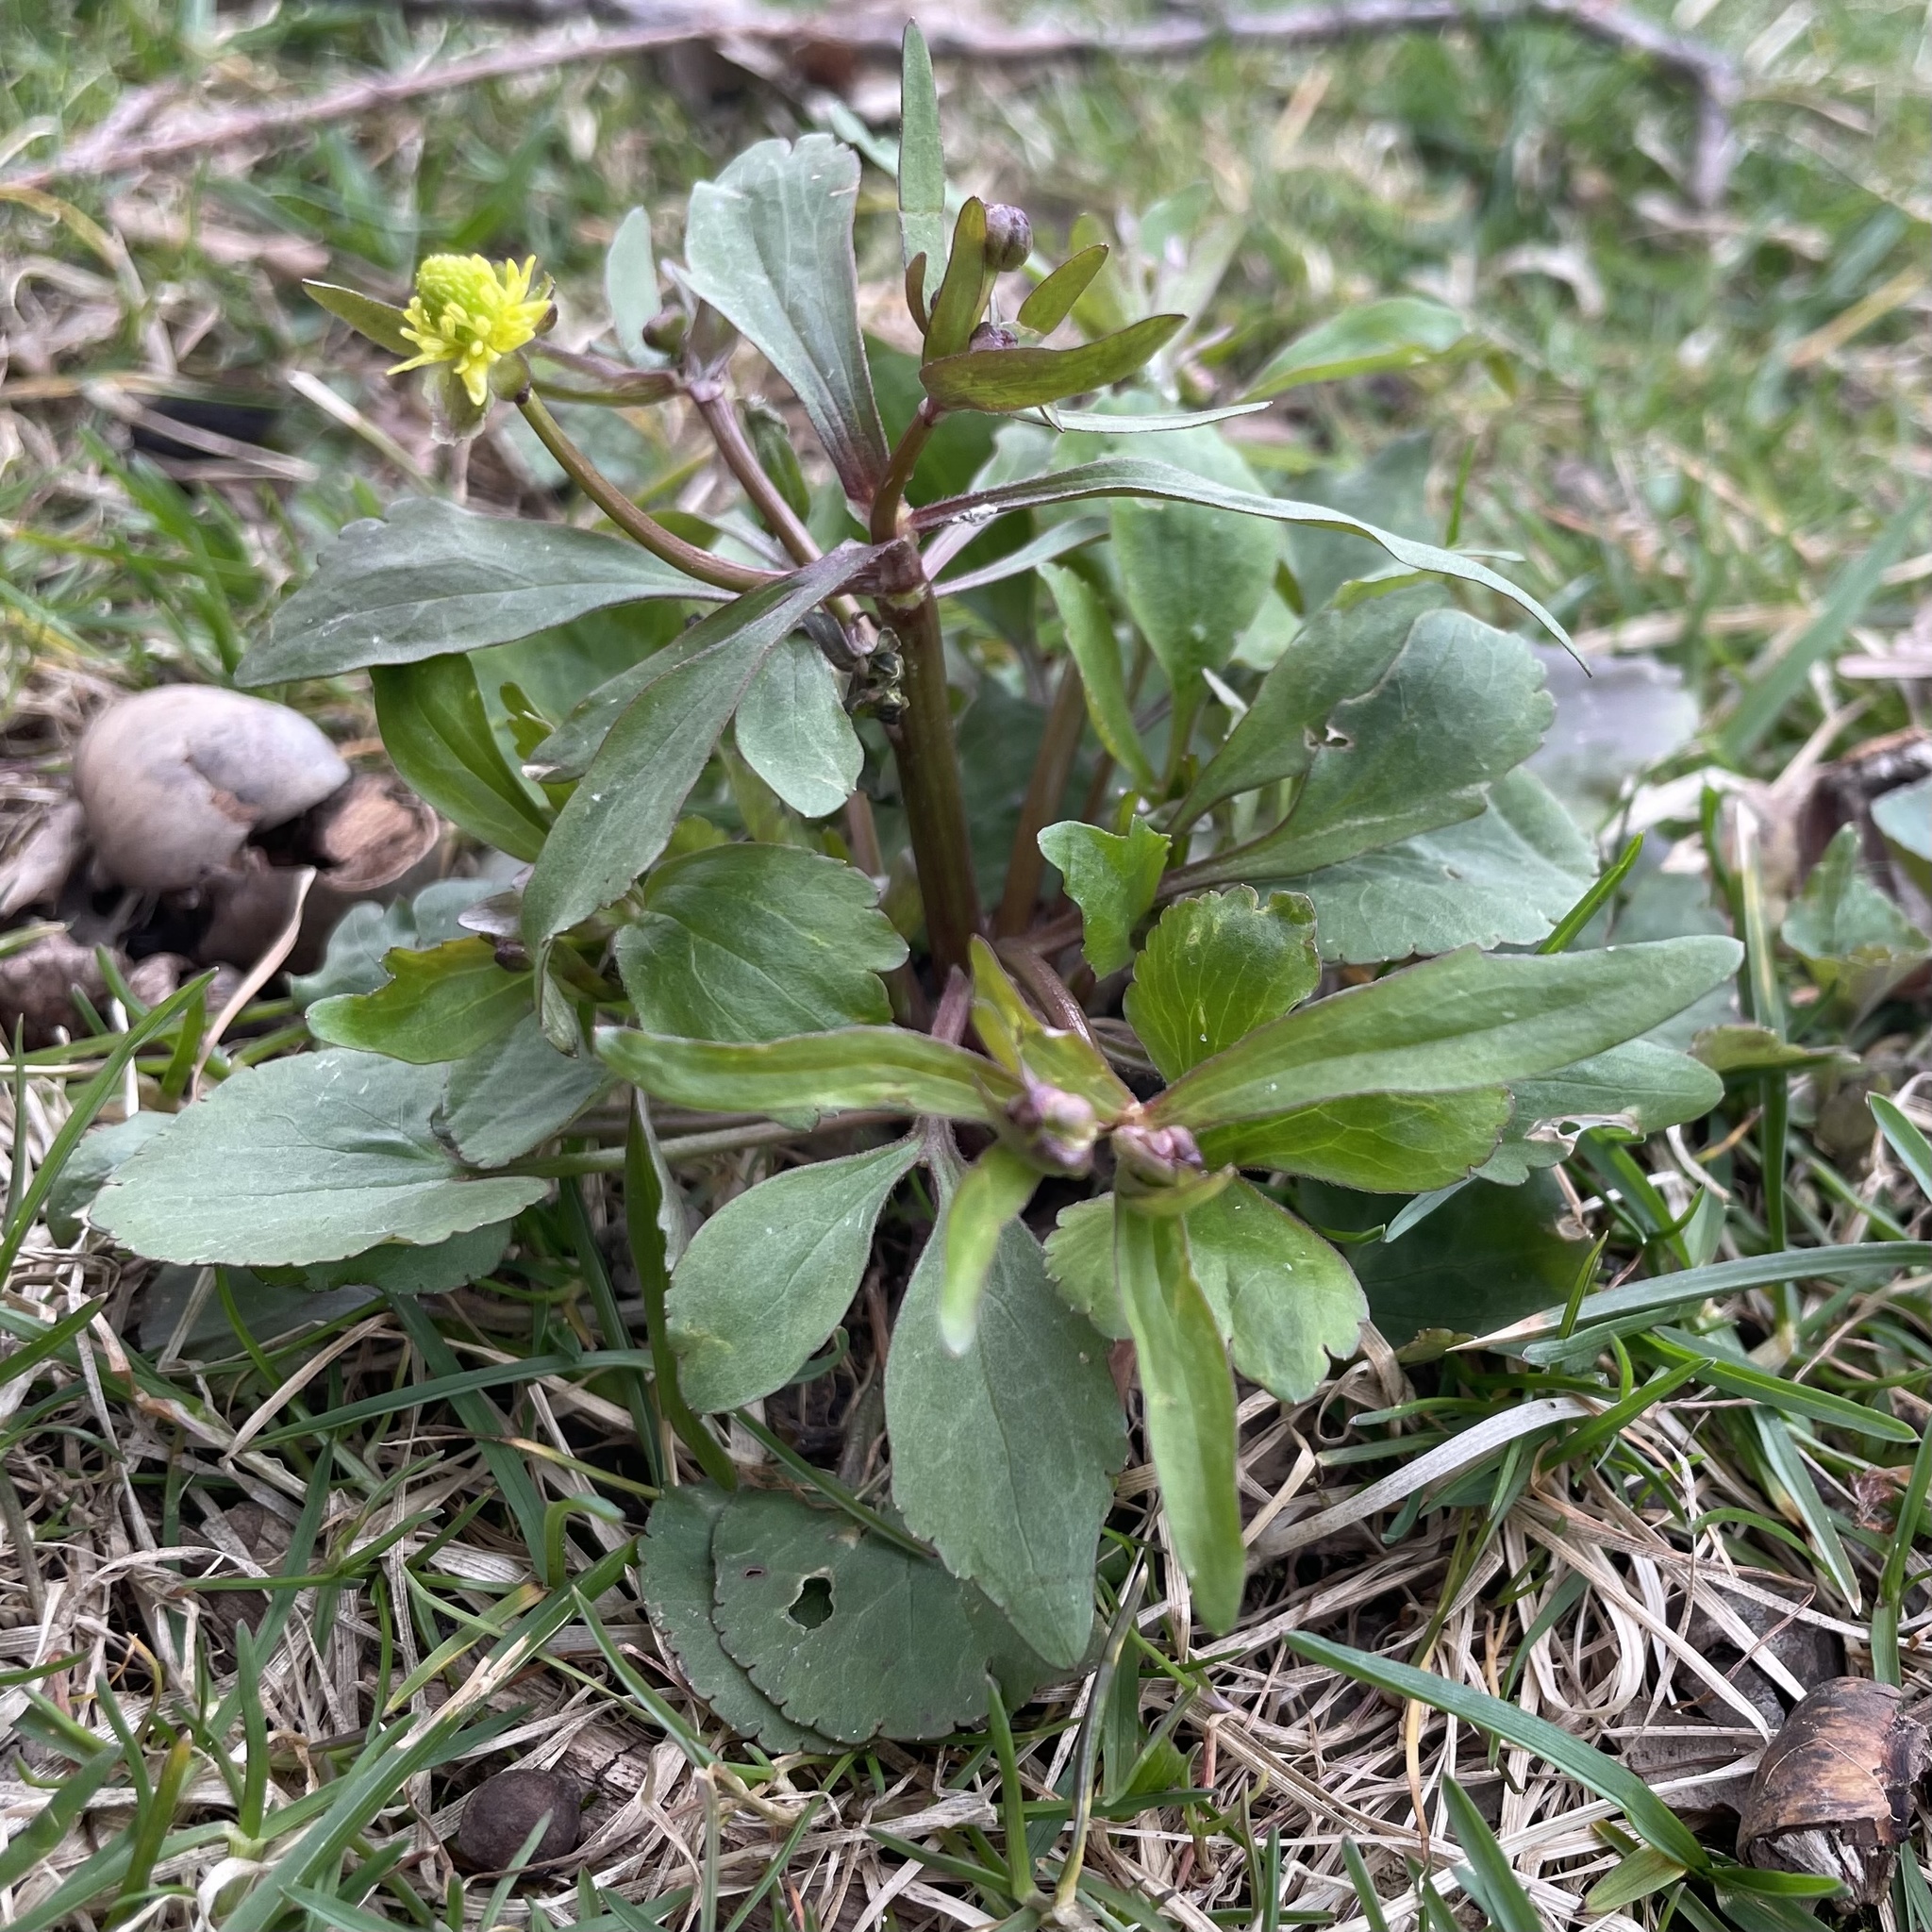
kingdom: Plantae
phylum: Tracheophyta
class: Magnoliopsida
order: Ranunculales
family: Ranunculaceae
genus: Ranunculus
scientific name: Ranunculus abortivus
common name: Early wood buttercup
